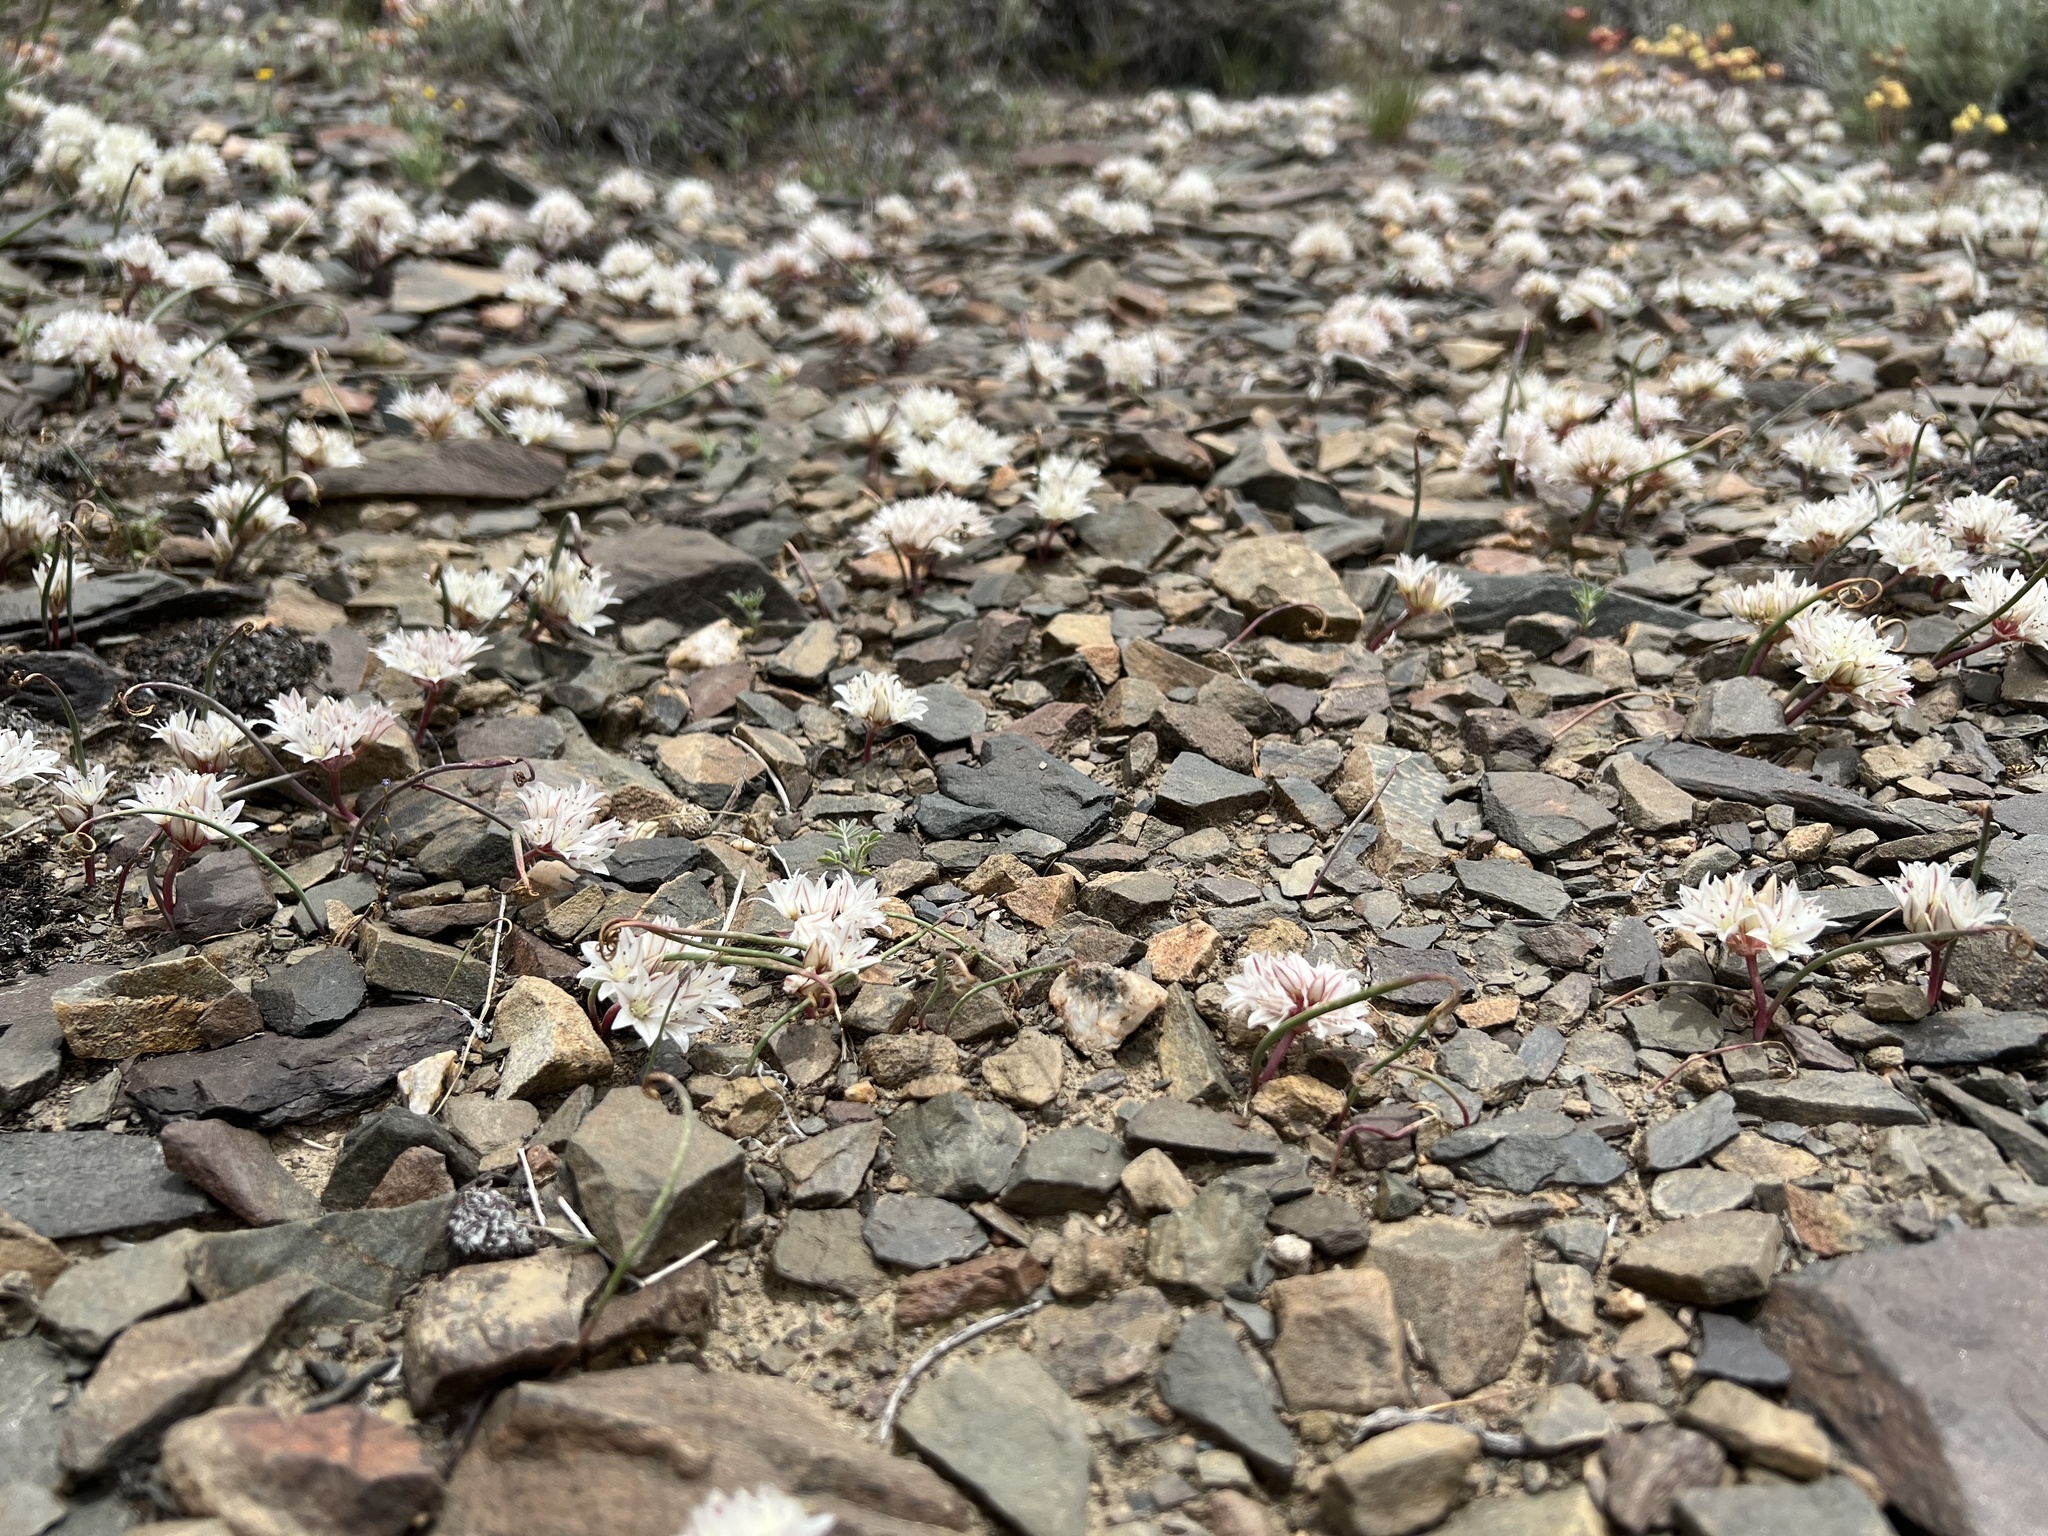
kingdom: Plantae
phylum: Tracheophyta
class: Liliopsida
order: Asparagales
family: Amaryllidaceae
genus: Allium
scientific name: Allium atrorubens
